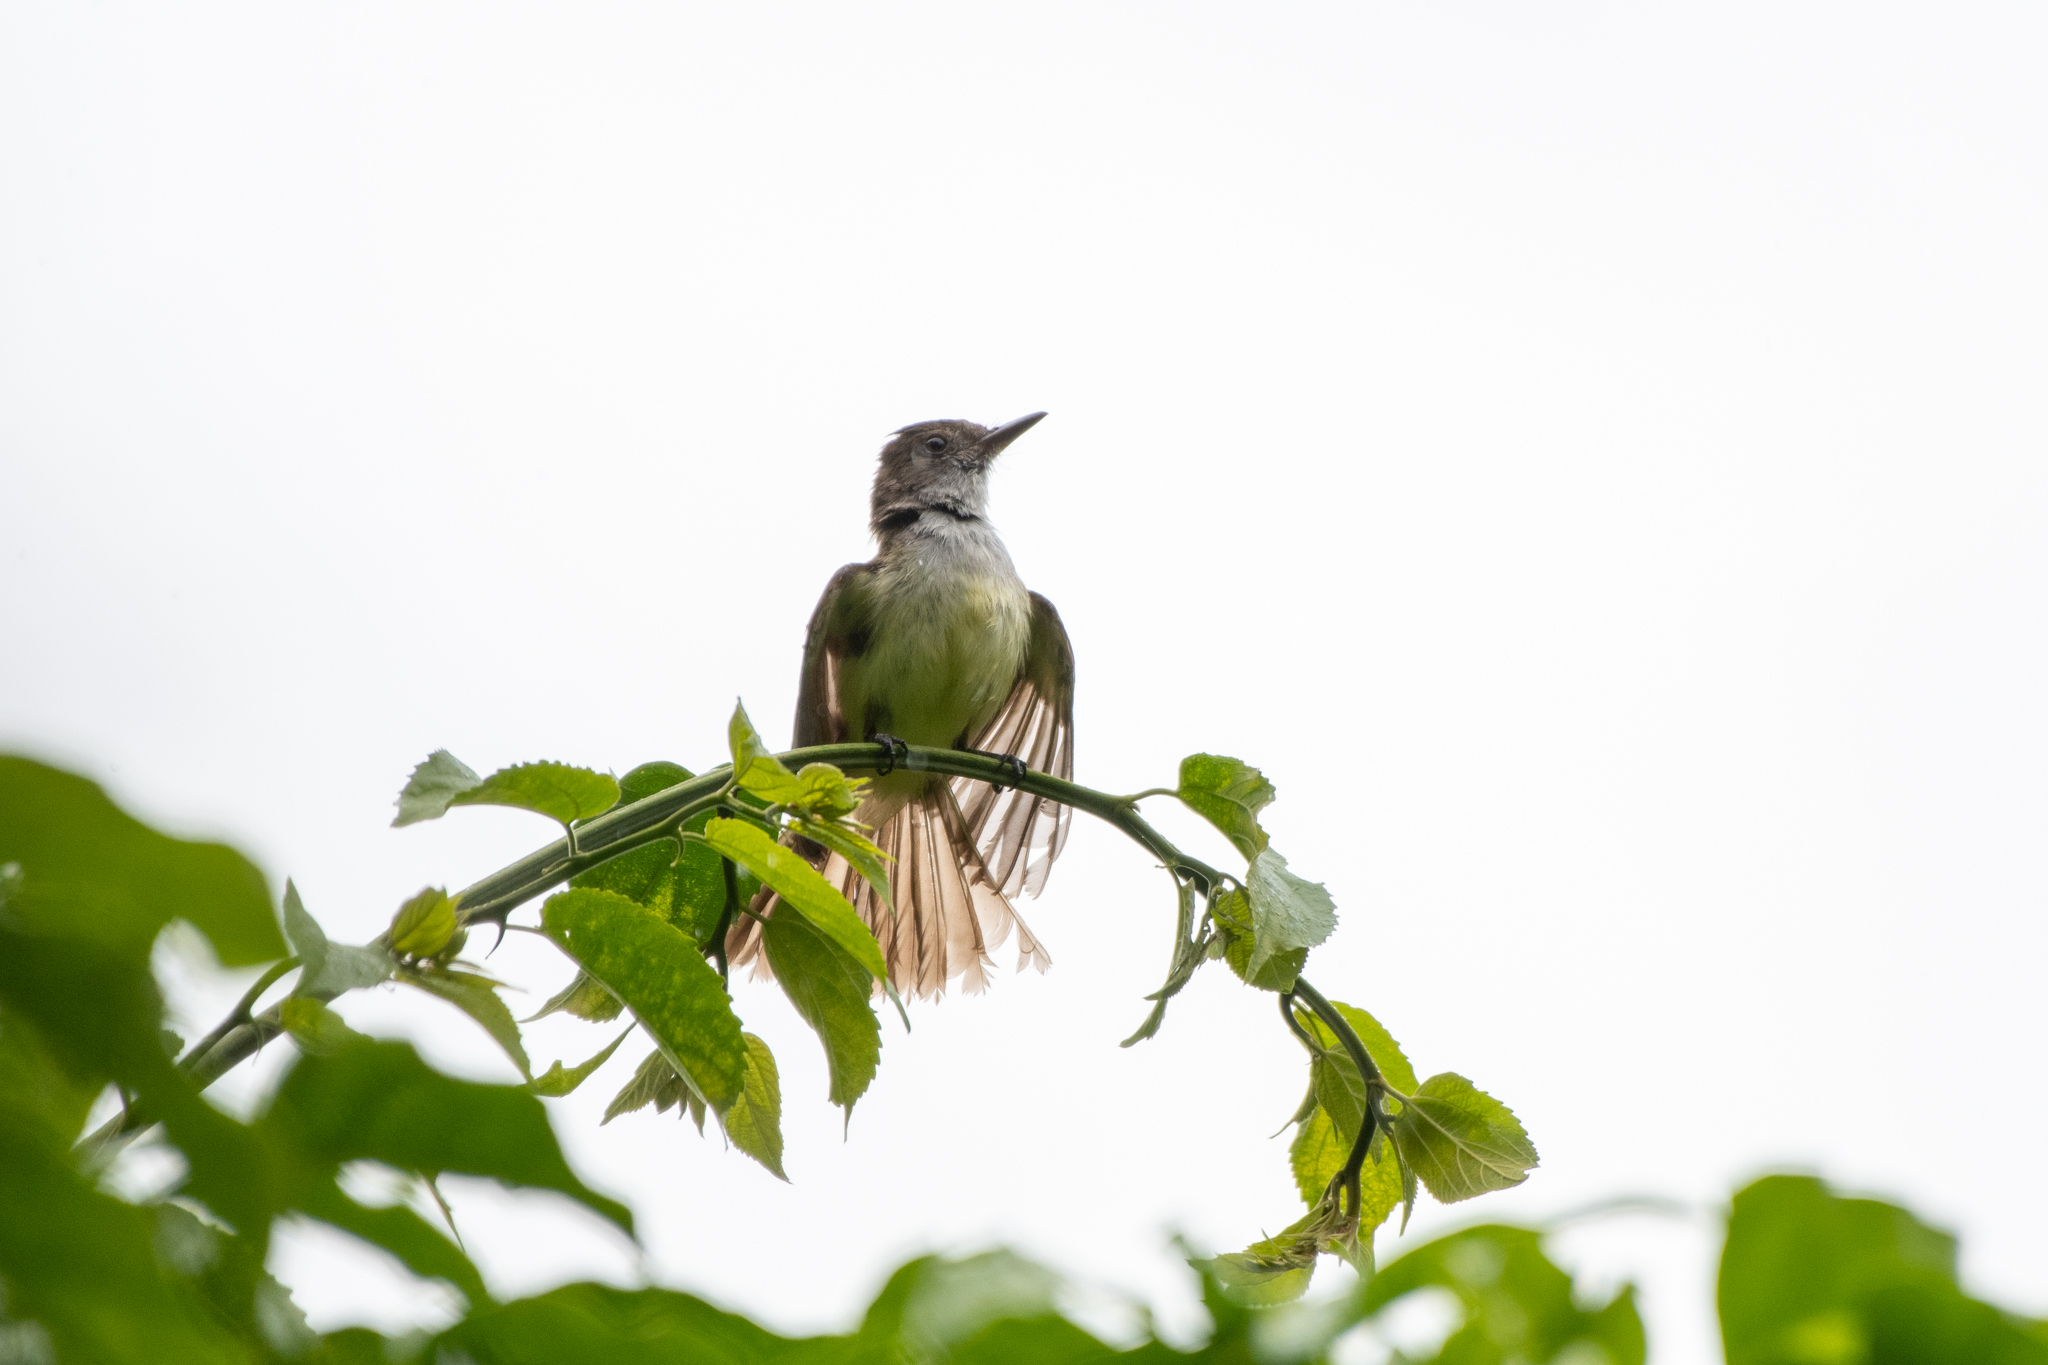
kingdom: Animalia
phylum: Chordata
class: Aves
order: Passeriformes
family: Tyrannidae
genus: Myiarchus
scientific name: Myiarchus tuberculifer
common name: Dusky-capped flycatcher
